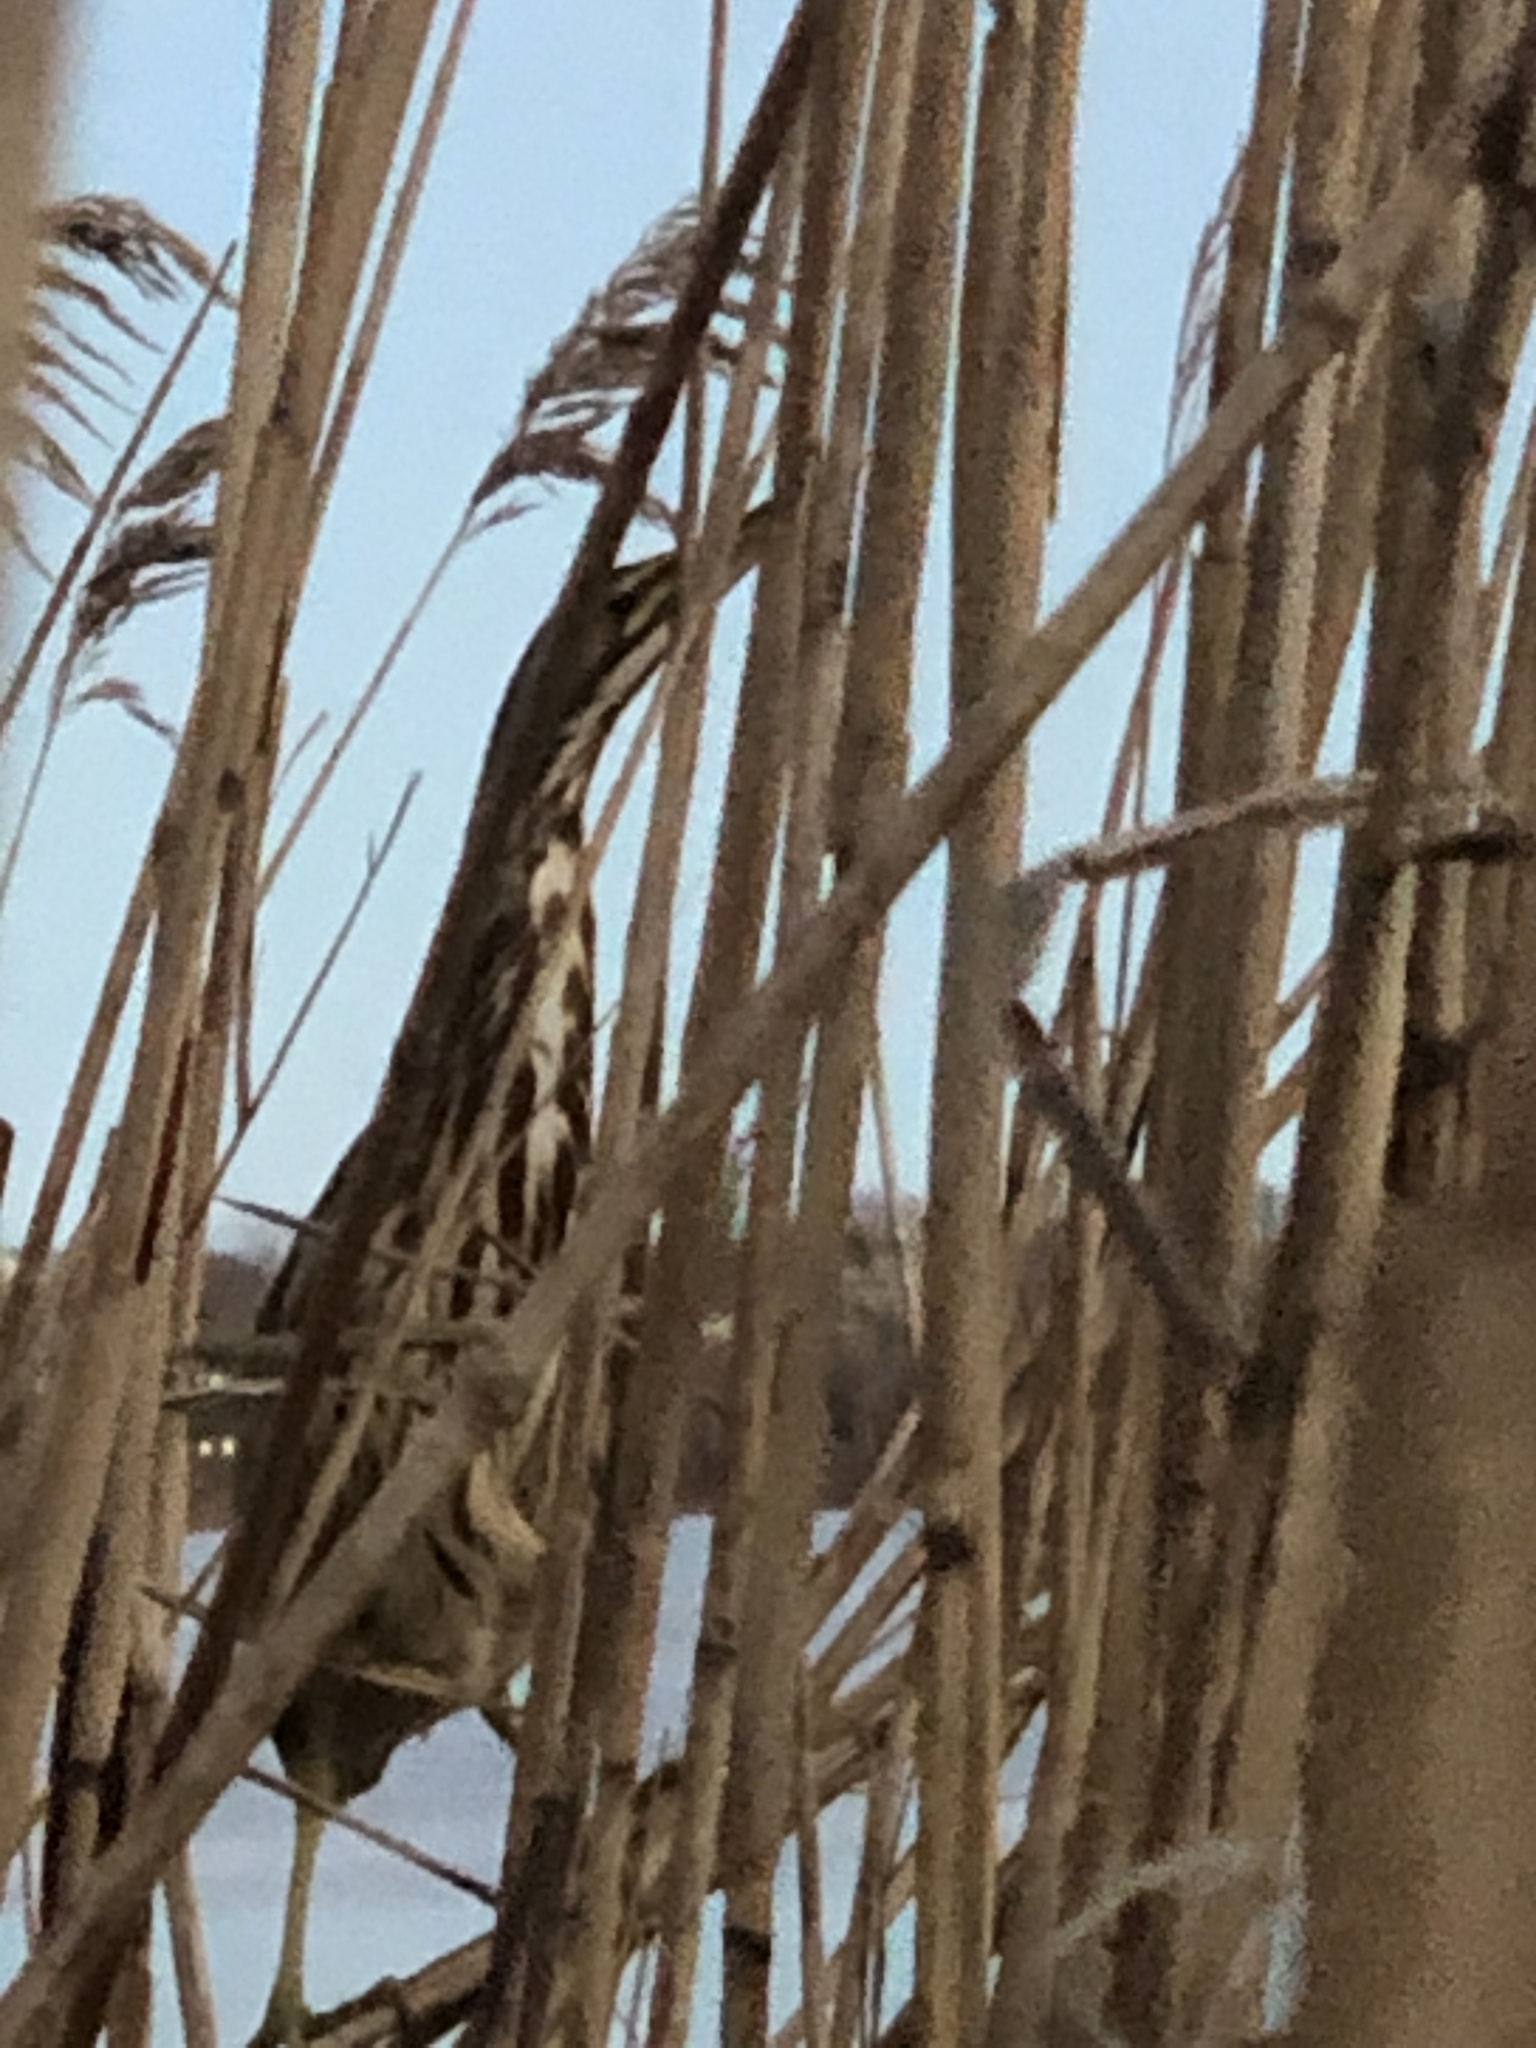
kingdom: Animalia
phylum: Chordata
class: Aves
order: Pelecaniformes
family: Ardeidae
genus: Botaurus
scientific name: Botaurus lentiginosus
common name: American bittern
